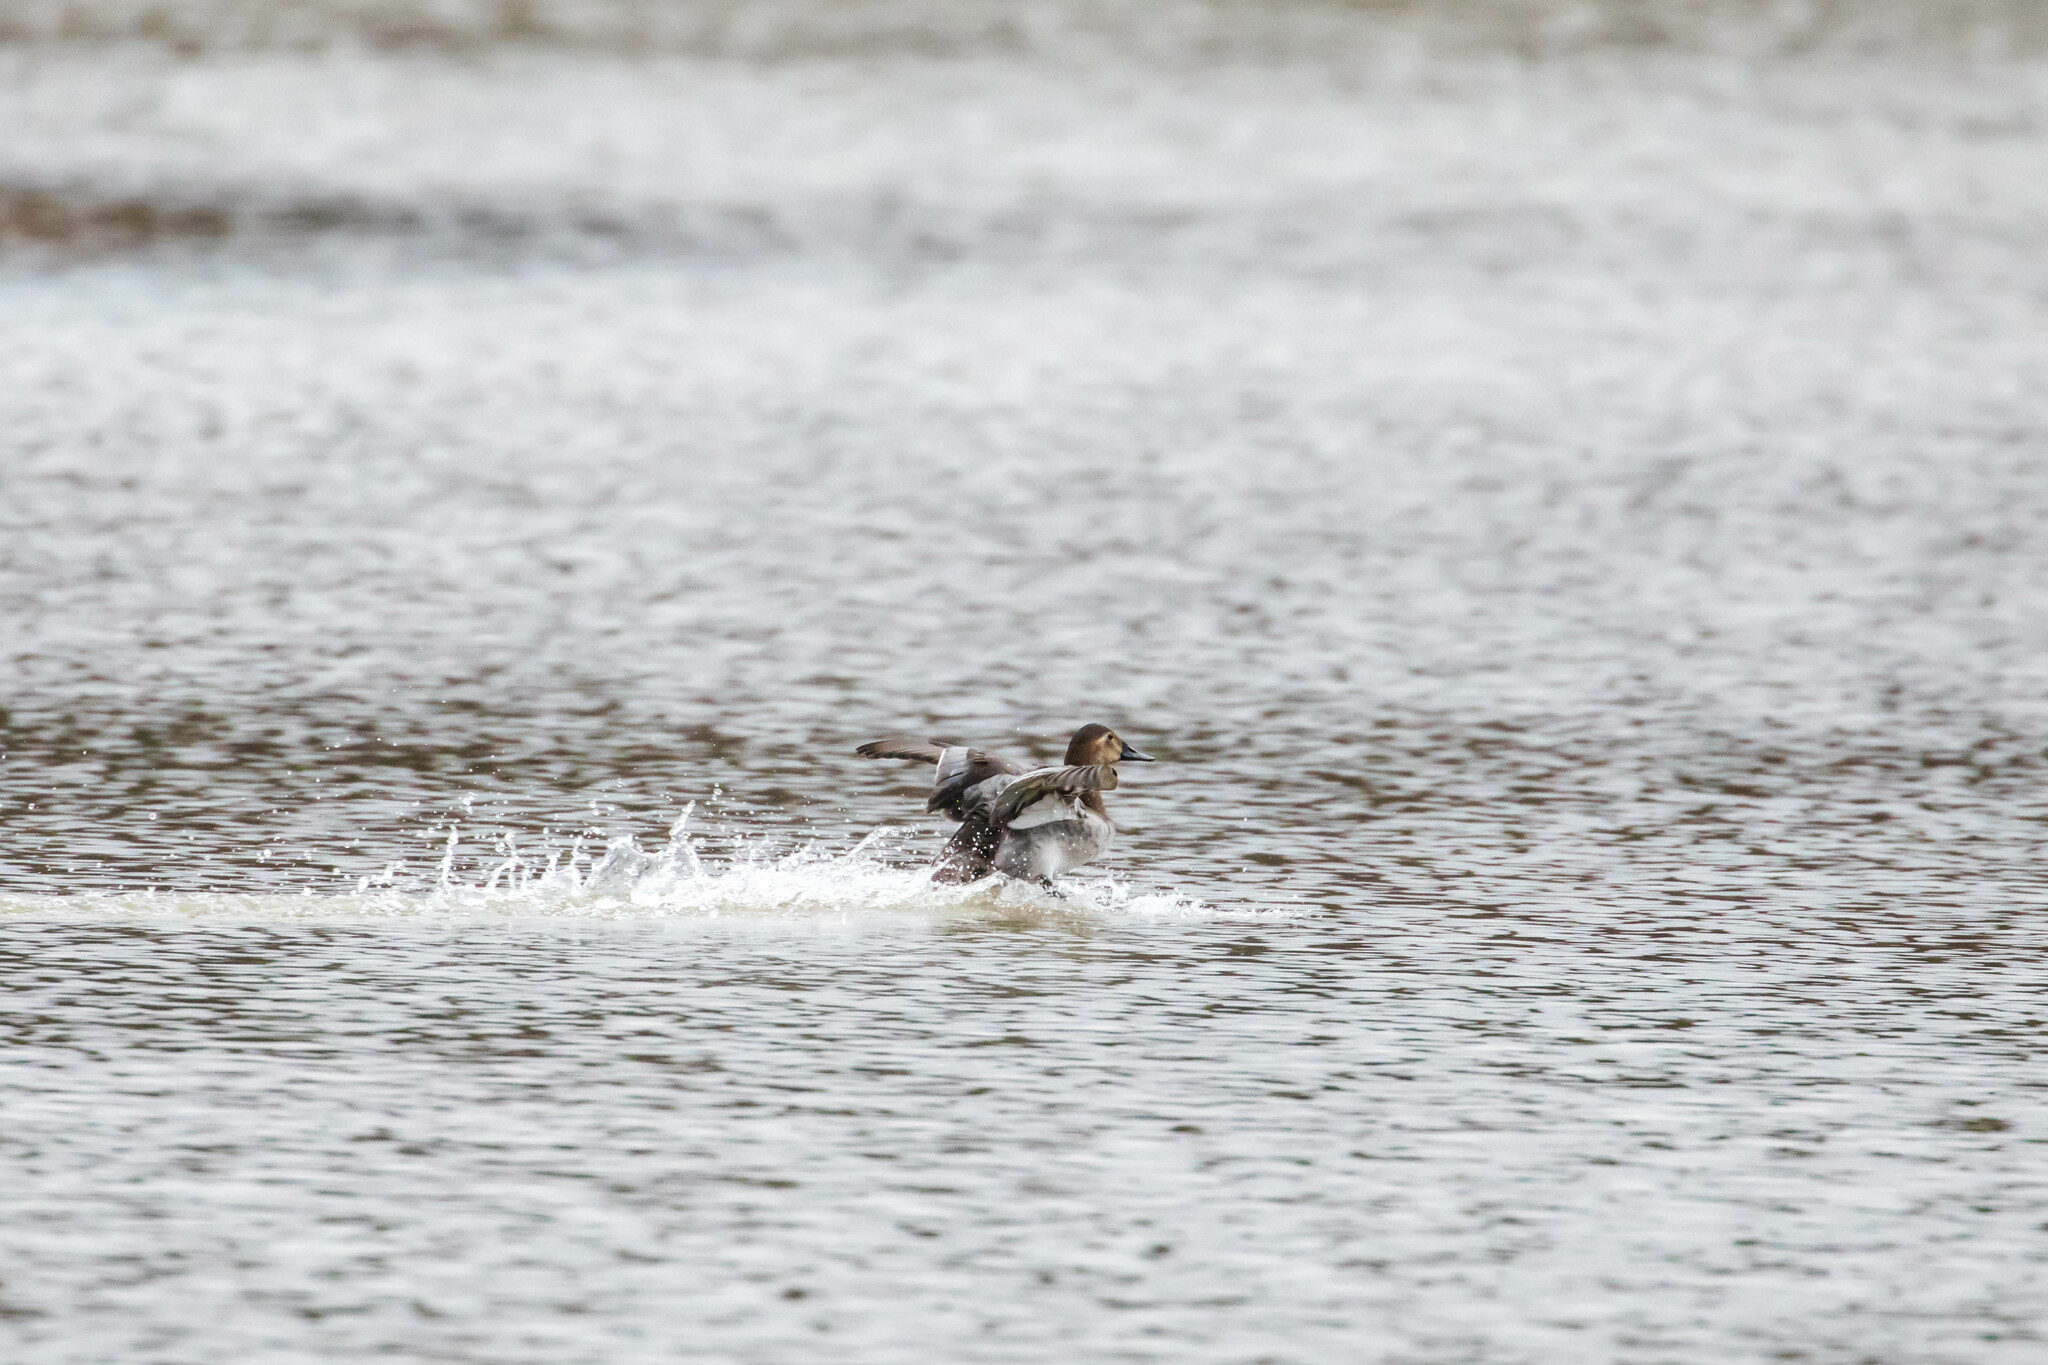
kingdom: Animalia
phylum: Chordata
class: Aves
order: Anseriformes
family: Anatidae
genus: Aythya
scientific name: Aythya valisineria
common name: Canvasback
